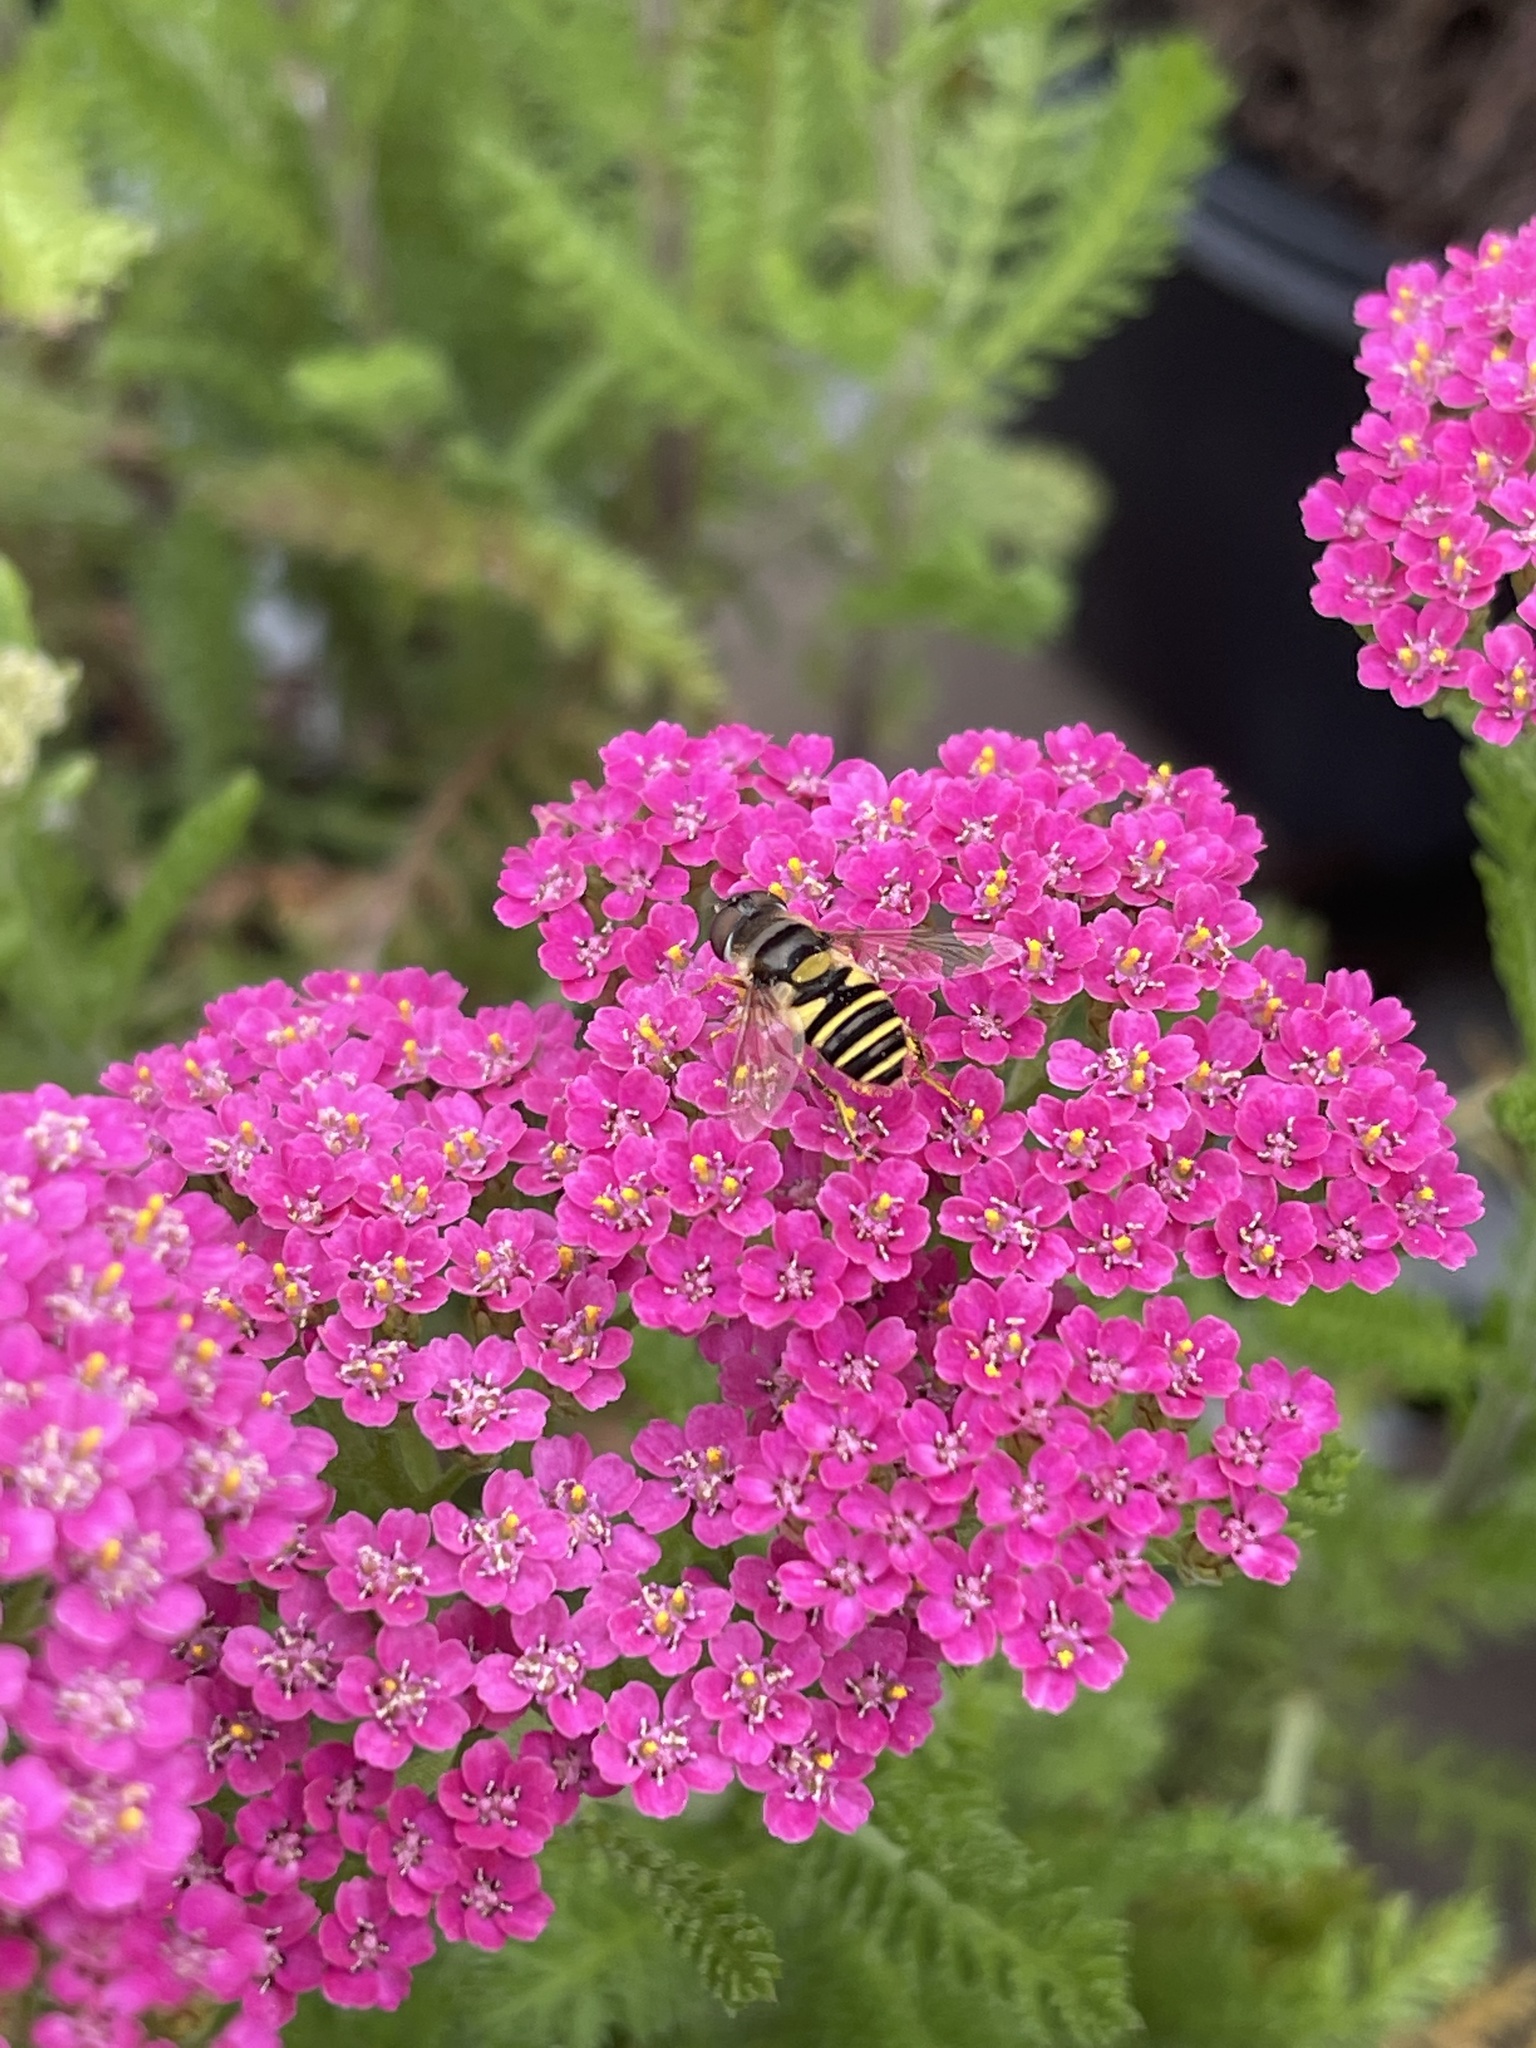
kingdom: Animalia
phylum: Arthropoda
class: Insecta
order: Diptera
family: Syrphidae
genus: Eristalis
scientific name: Eristalis transversa
